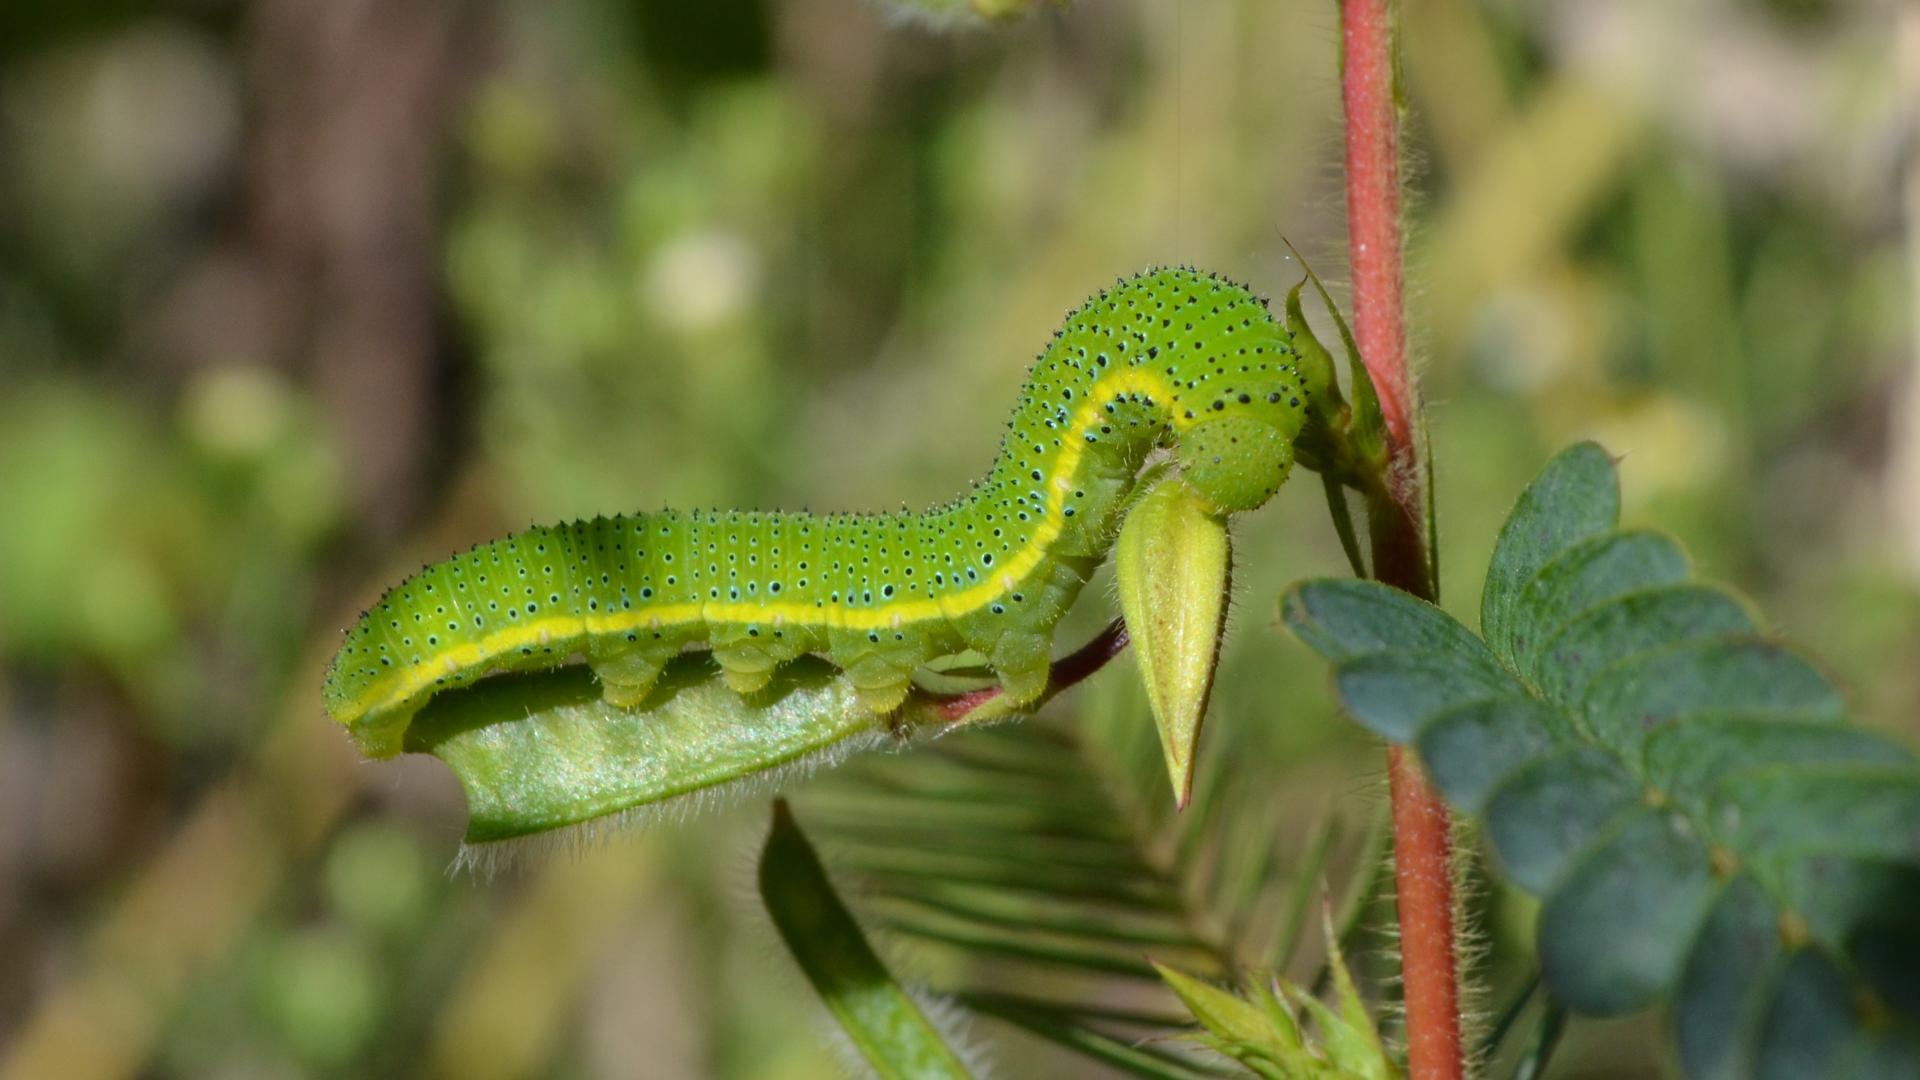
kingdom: Animalia
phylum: Arthropoda
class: Insecta
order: Lepidoptera
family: Pieridae
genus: Phoebis
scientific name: Phoebis sennae
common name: Cloudless sulphur
